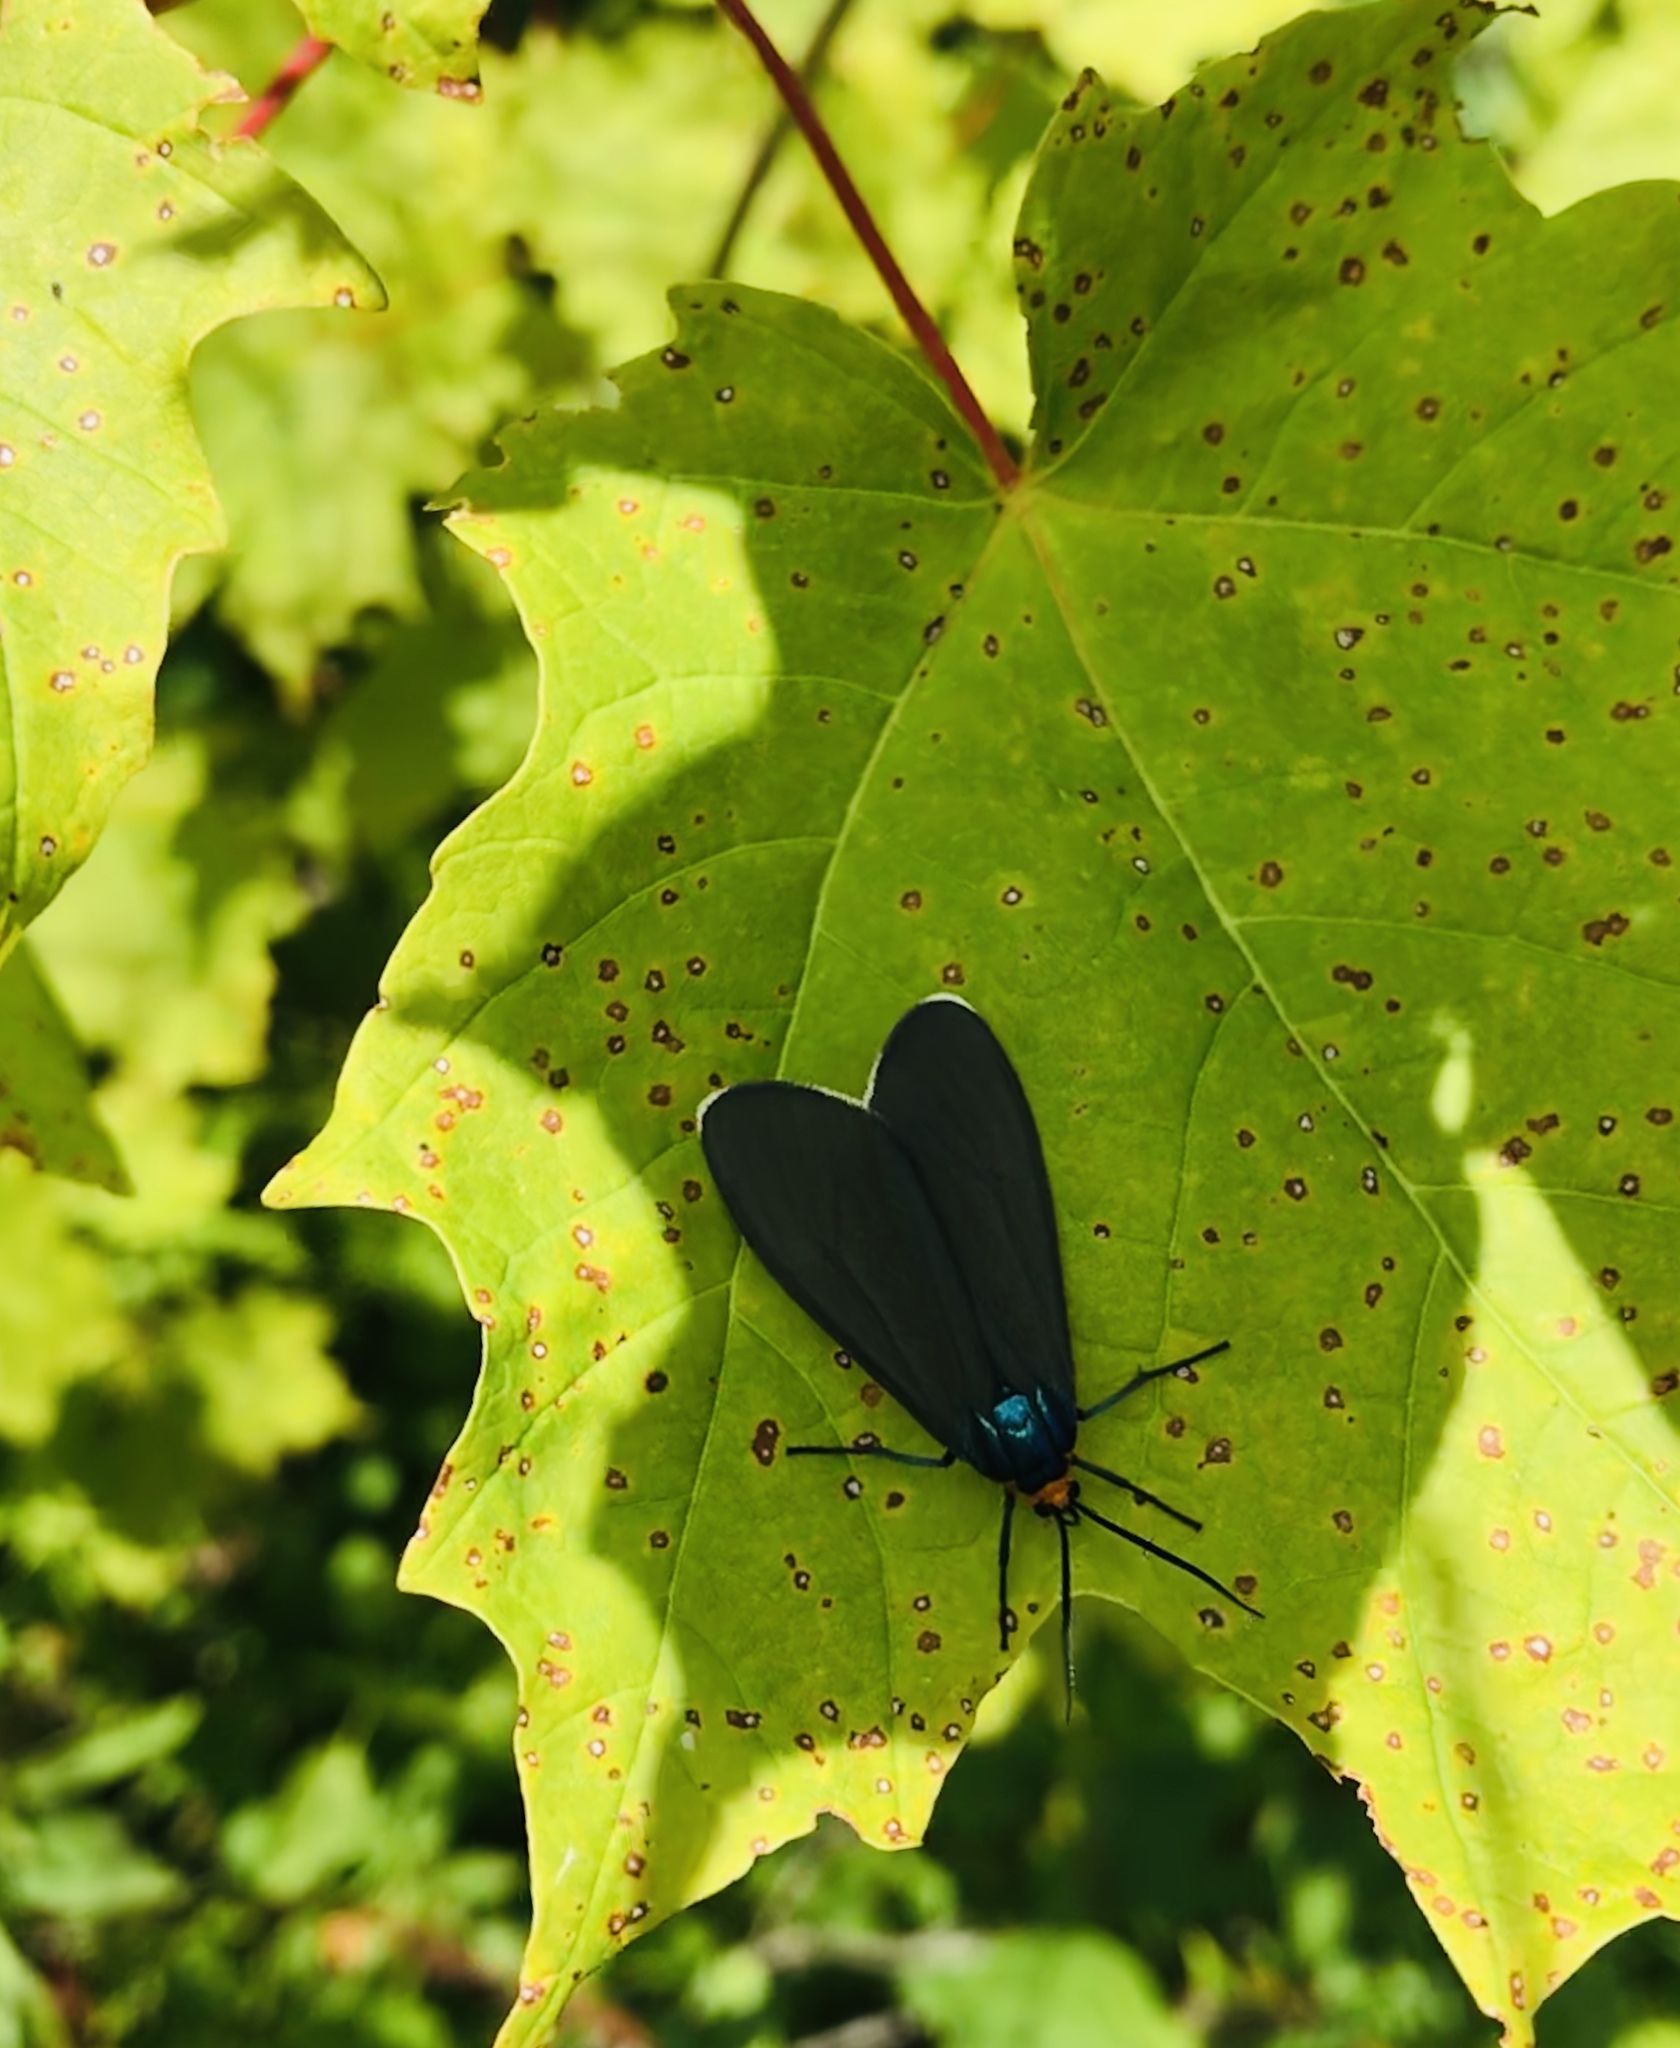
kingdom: Animalia
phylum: Arthropoda
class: Insecta
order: Lepidoptera
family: Erebidae
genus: Ctenucha
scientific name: Ctenucha virginica
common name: Virginia ctenucha moth
